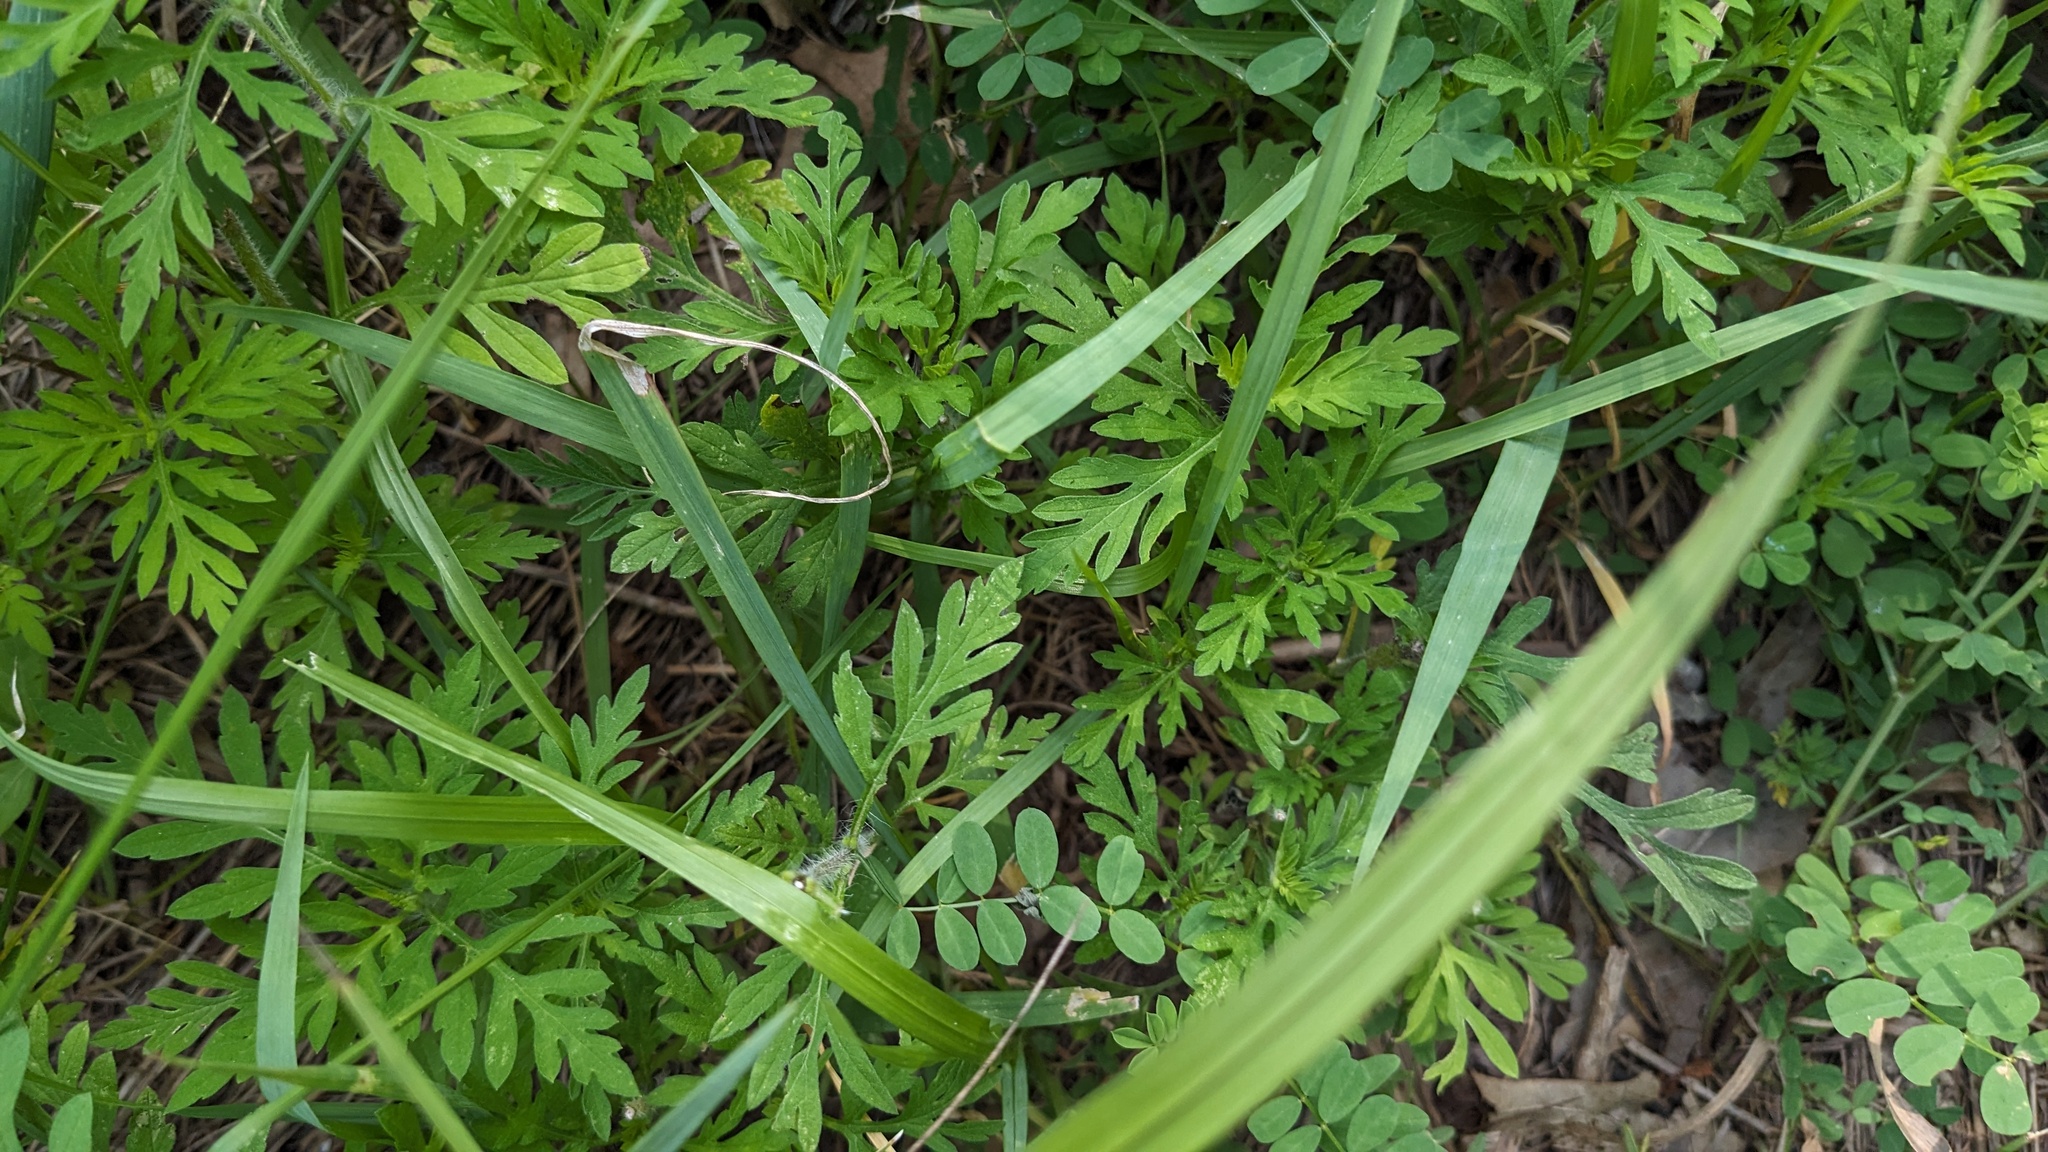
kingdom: Plantae
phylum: Tracheophyta
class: Magnoliopsida
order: Asterales
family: Asteraceae
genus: Ambrosia
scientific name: Ambrosia artemisiifolia
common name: Annual ragweed
